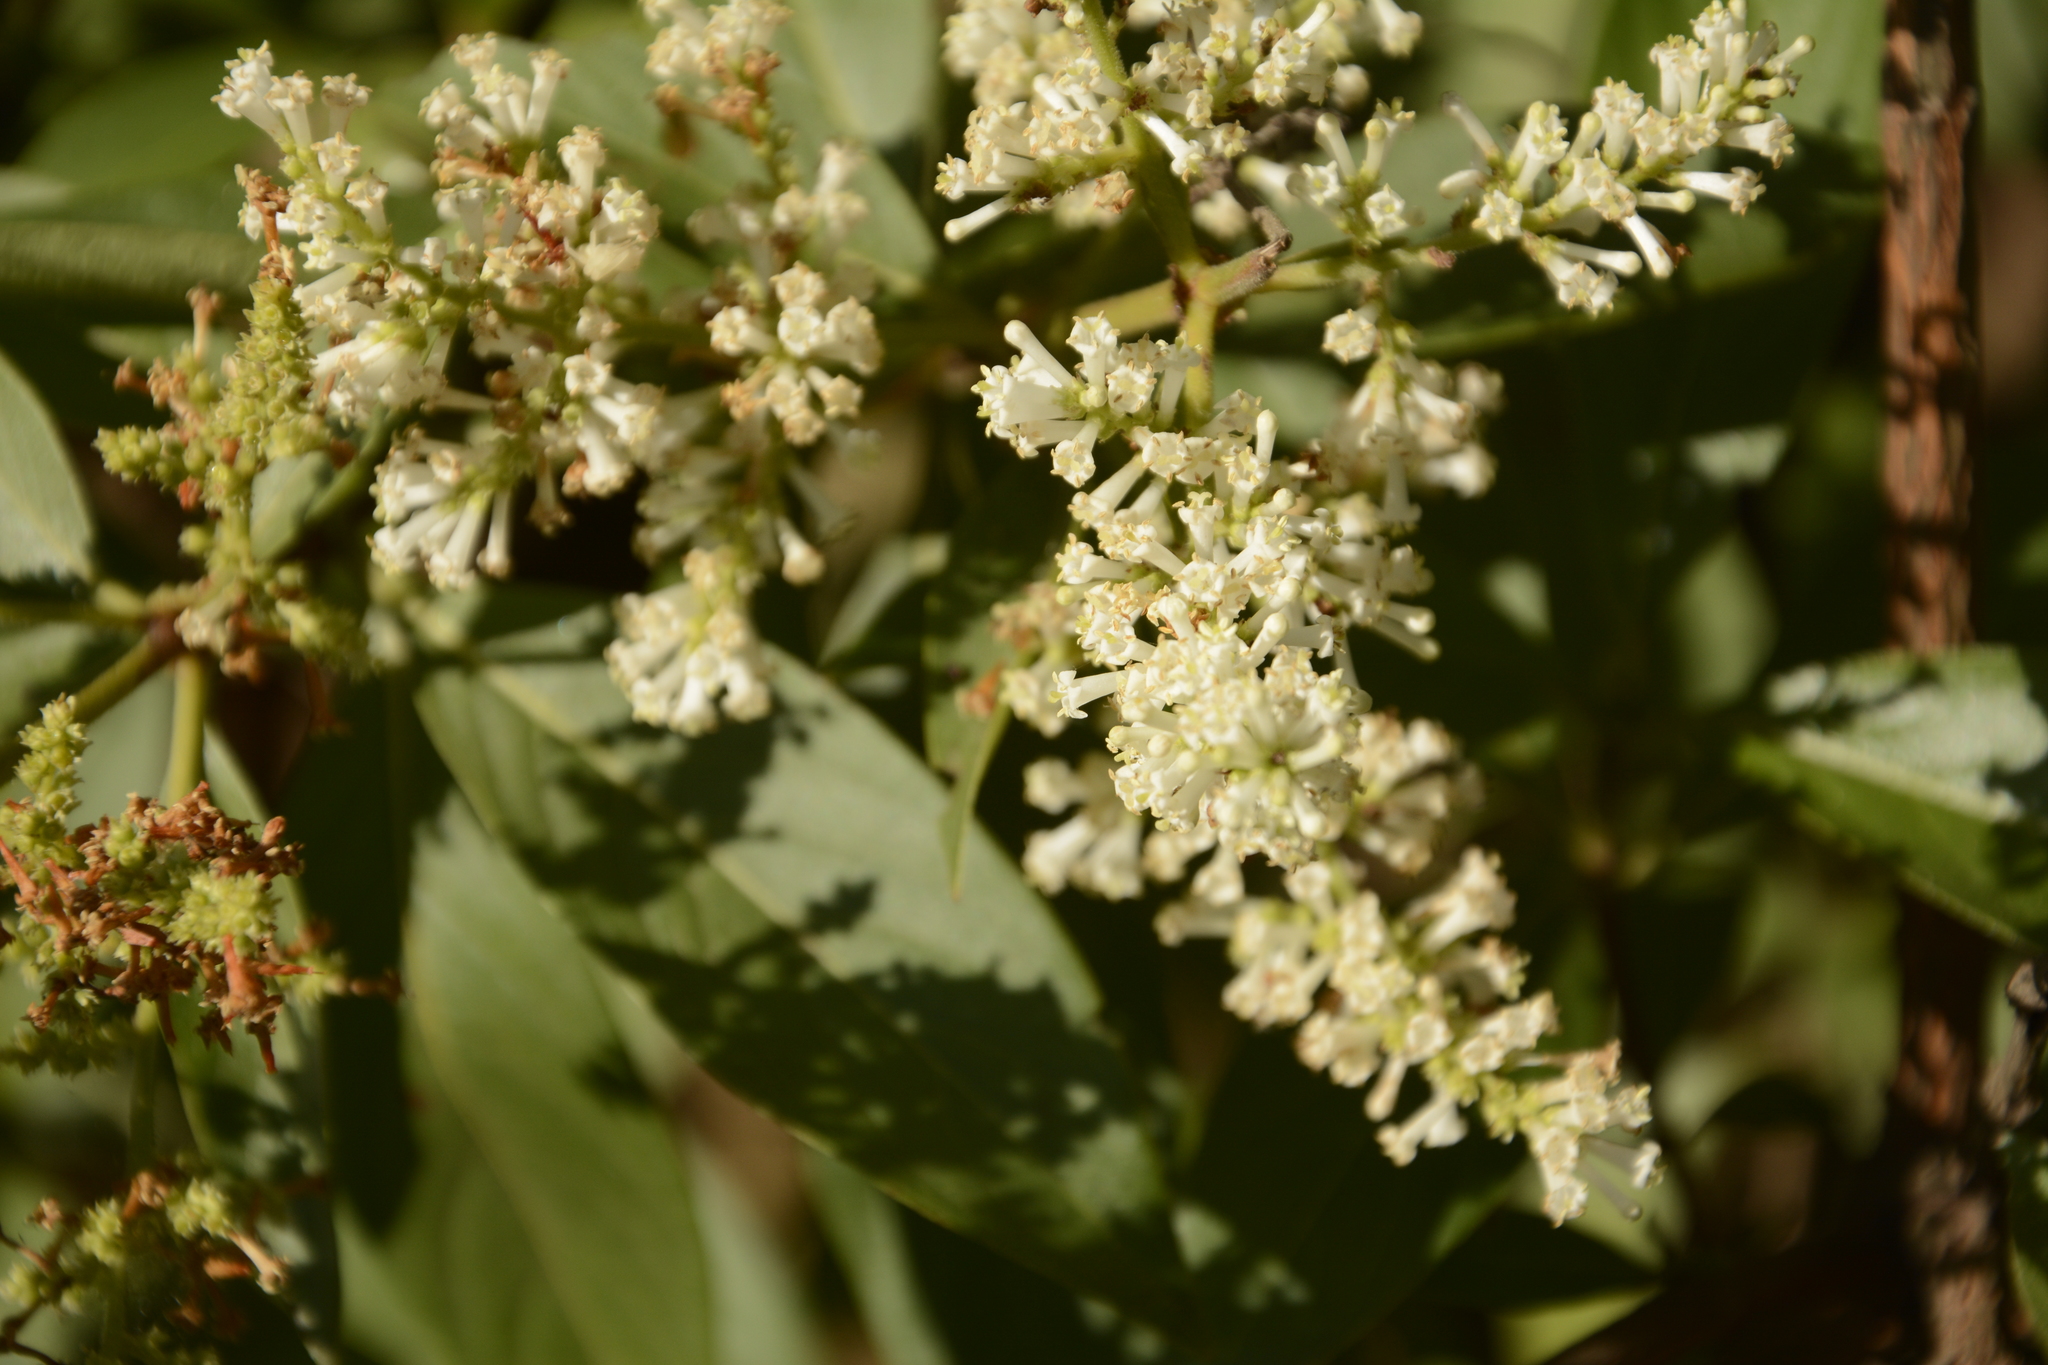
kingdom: Plantae
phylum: Tracheophyta
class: Magnoliopsida
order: Gentianales
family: Rubiaceae
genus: Wendlandia
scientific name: Wendlandia thyrsoidea
